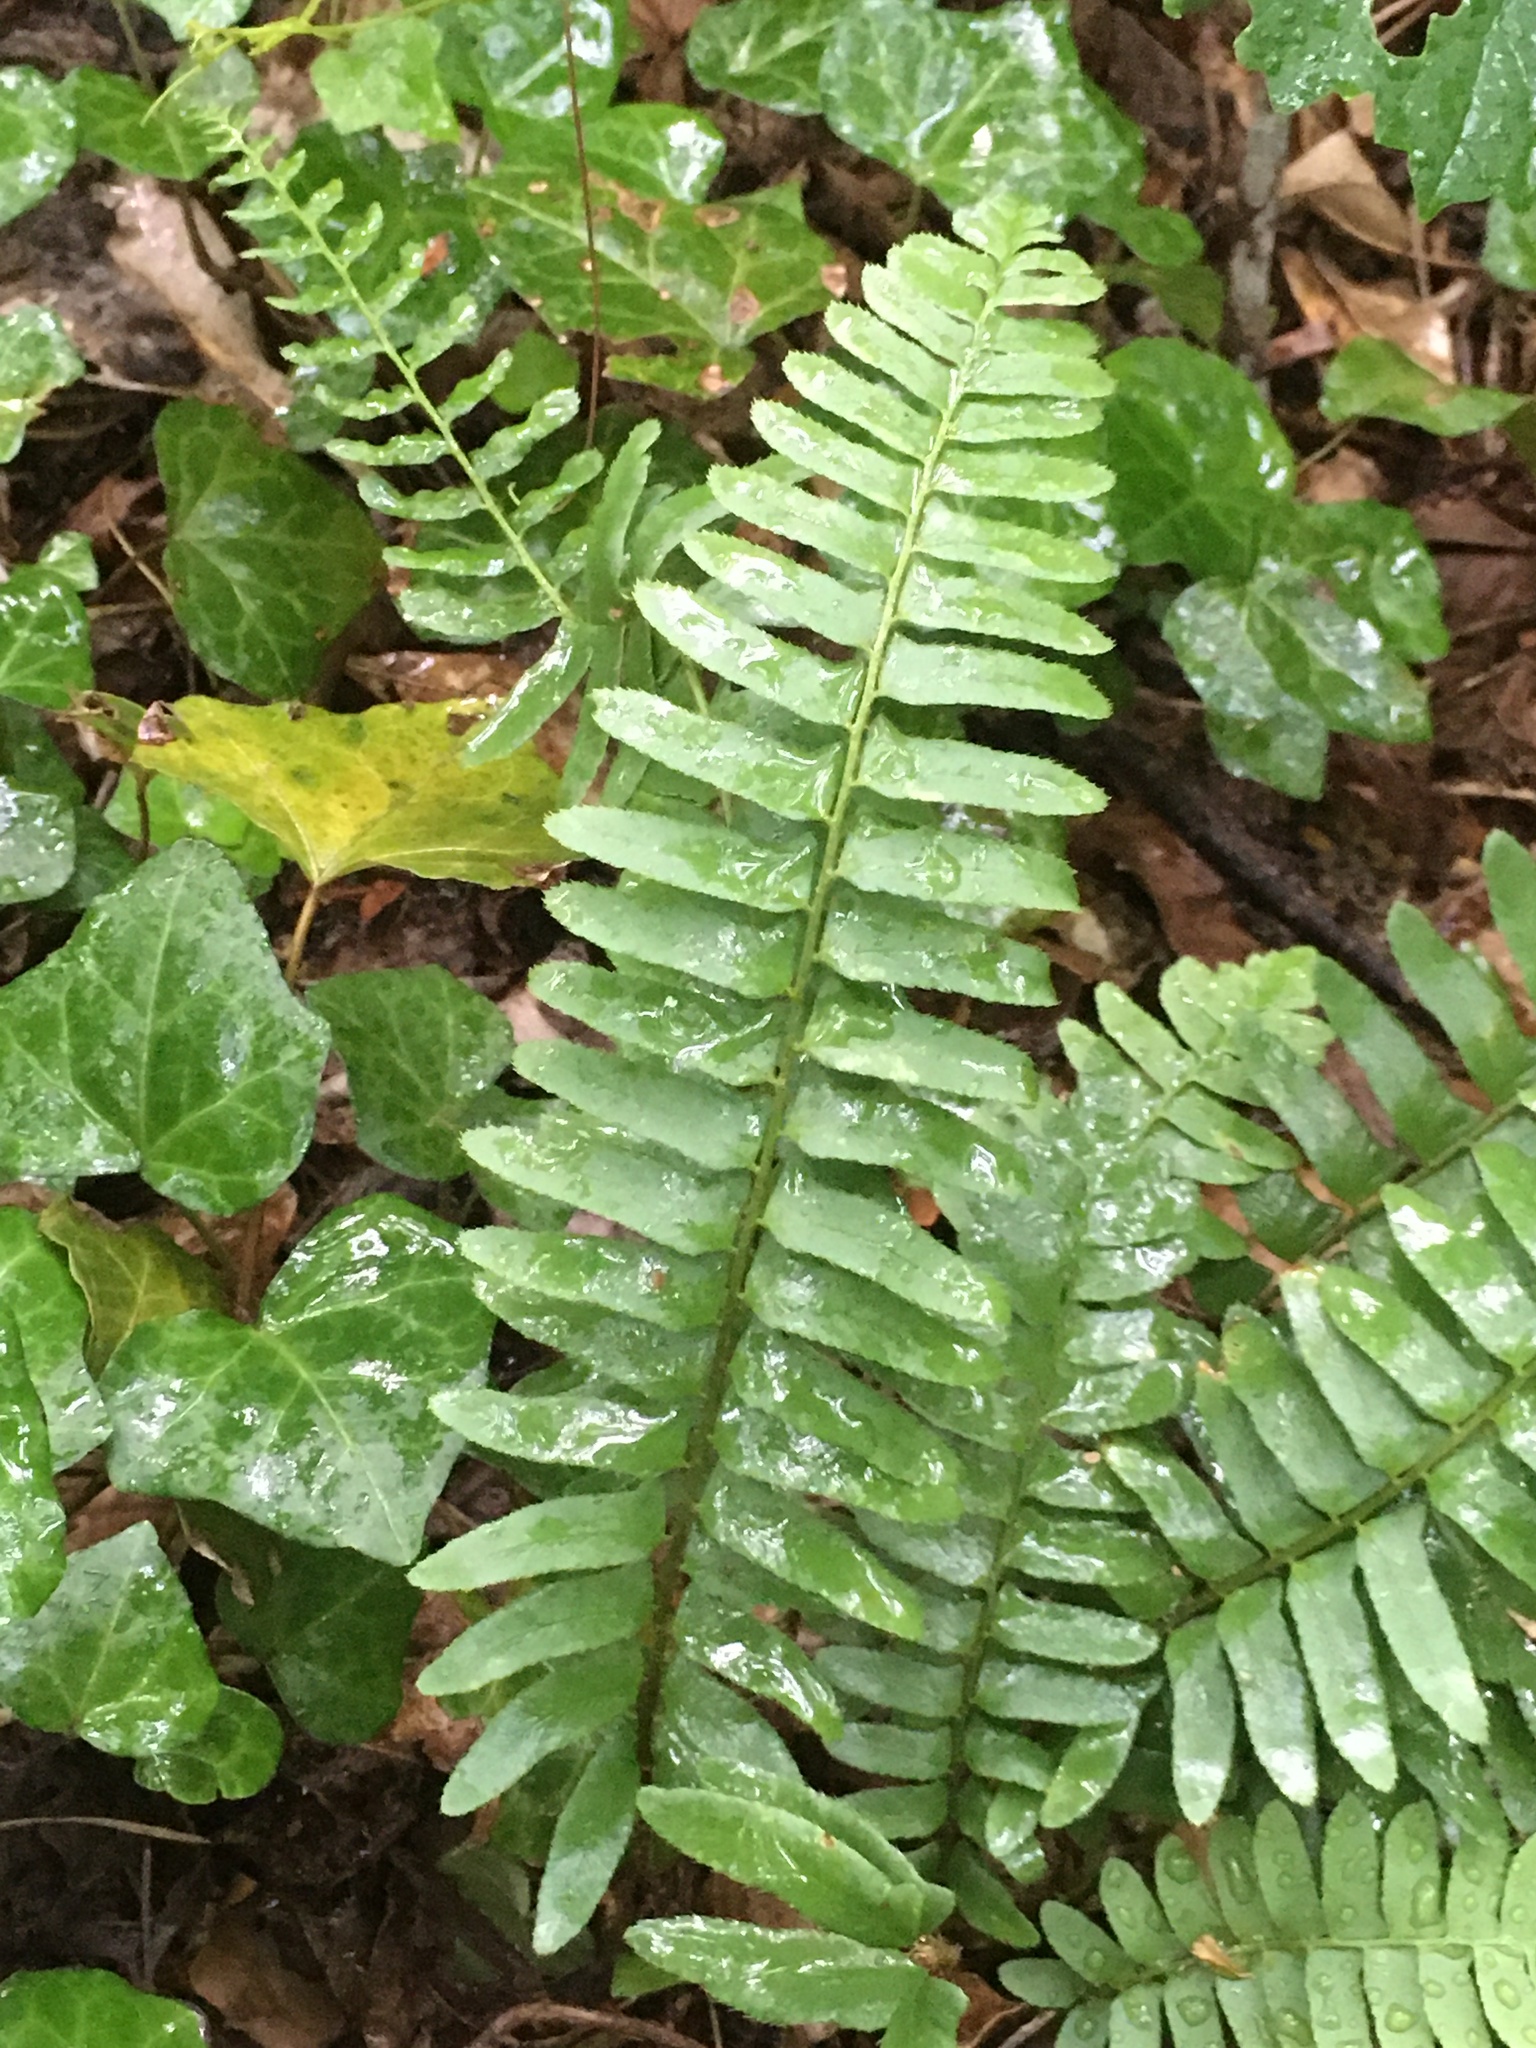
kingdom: Plantae
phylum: Tracheophyta
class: Polypodiopsida
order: Polypodiales
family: Dryopteridaceae
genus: Polystichum
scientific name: Polystichum acrostichoides
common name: Christmas fern
